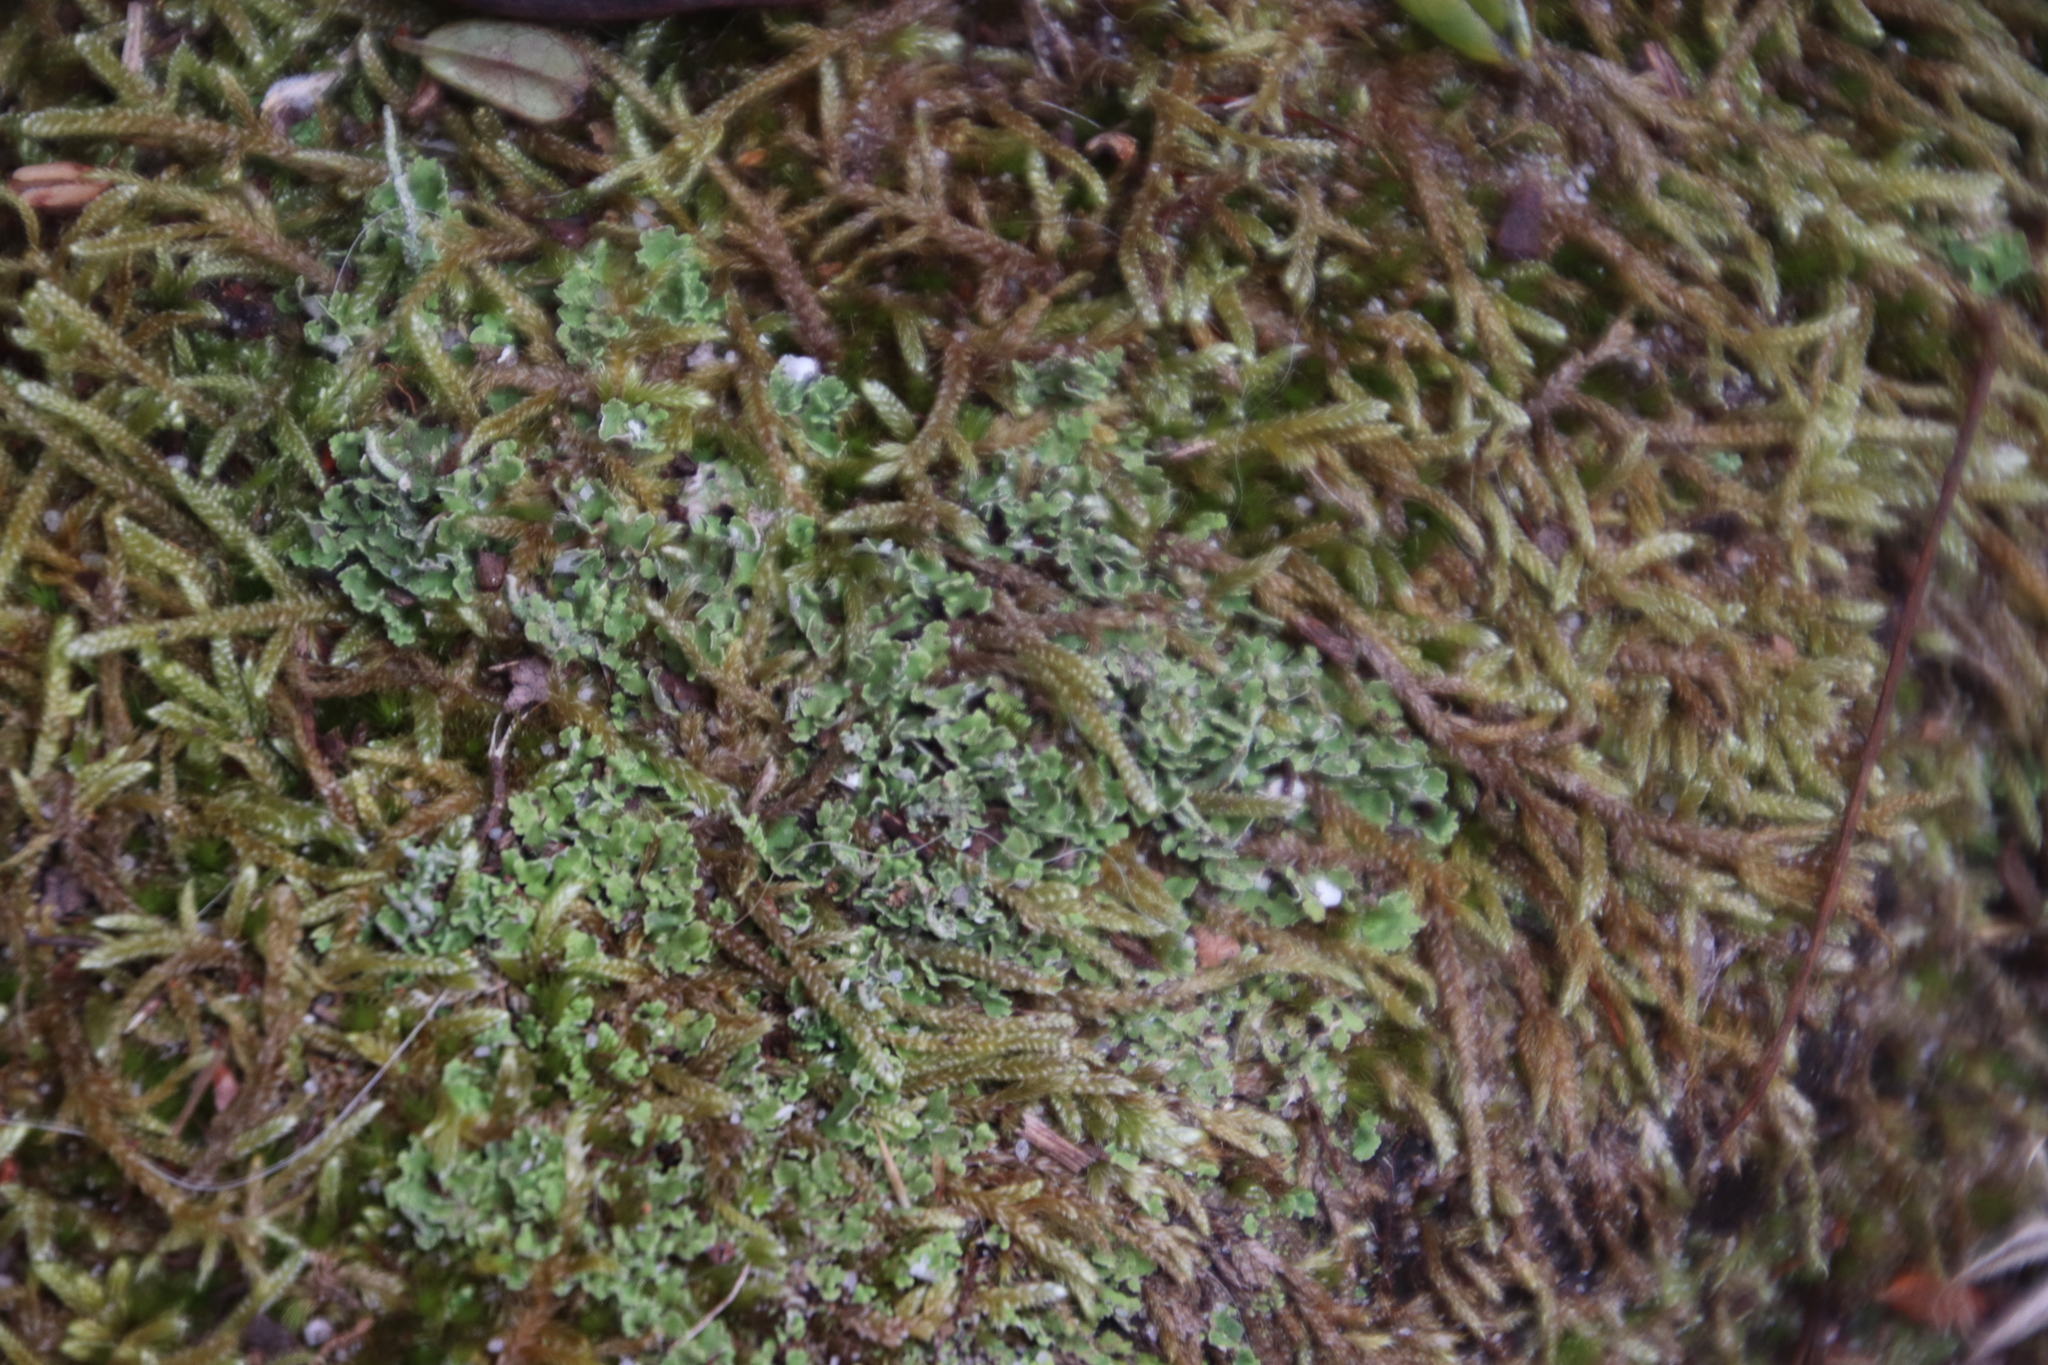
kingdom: Plantae
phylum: Bryophyta
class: Bryopsida
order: Hypnales
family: Hypnaceae
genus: Hypnum
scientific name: Hypnum cupressiforme
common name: Cypress-leaved plait-moss
